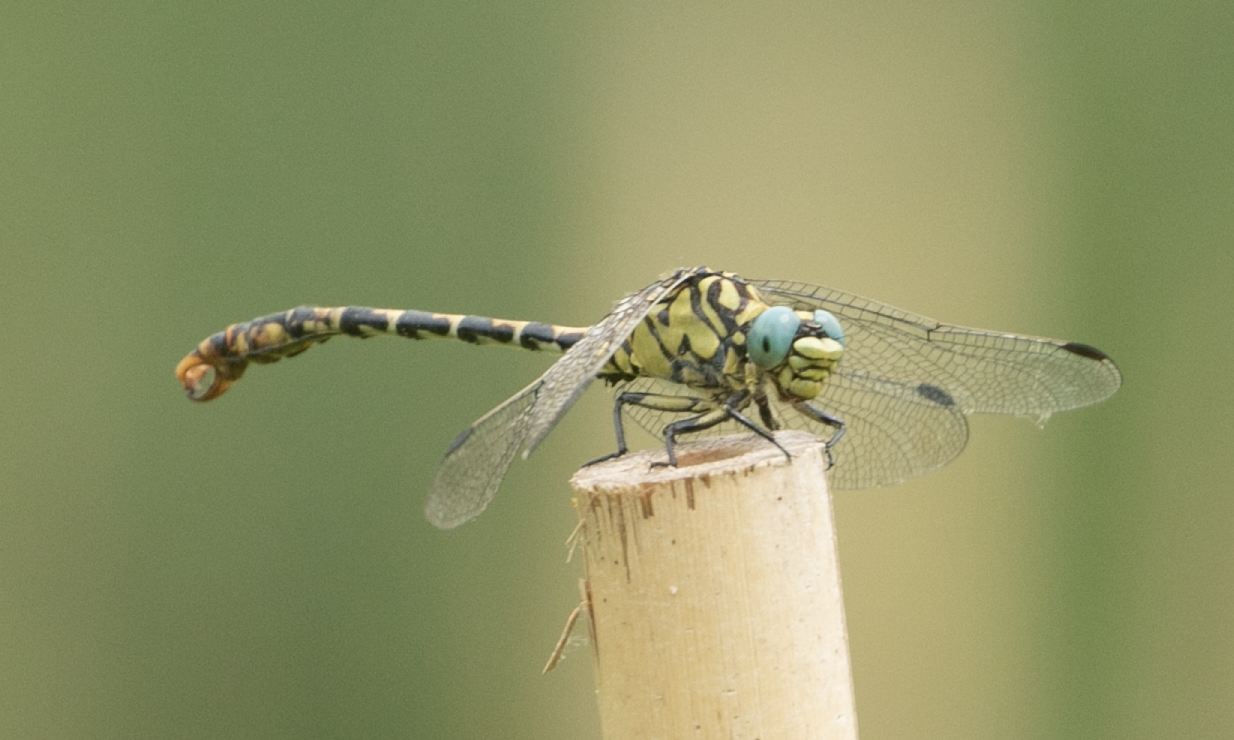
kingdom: Animalia
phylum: Arthropoda
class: Insecta
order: Odonata
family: Gomphidae
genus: Onychogomphus
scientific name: Onychogomphus forcipatus
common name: Small pincertail
